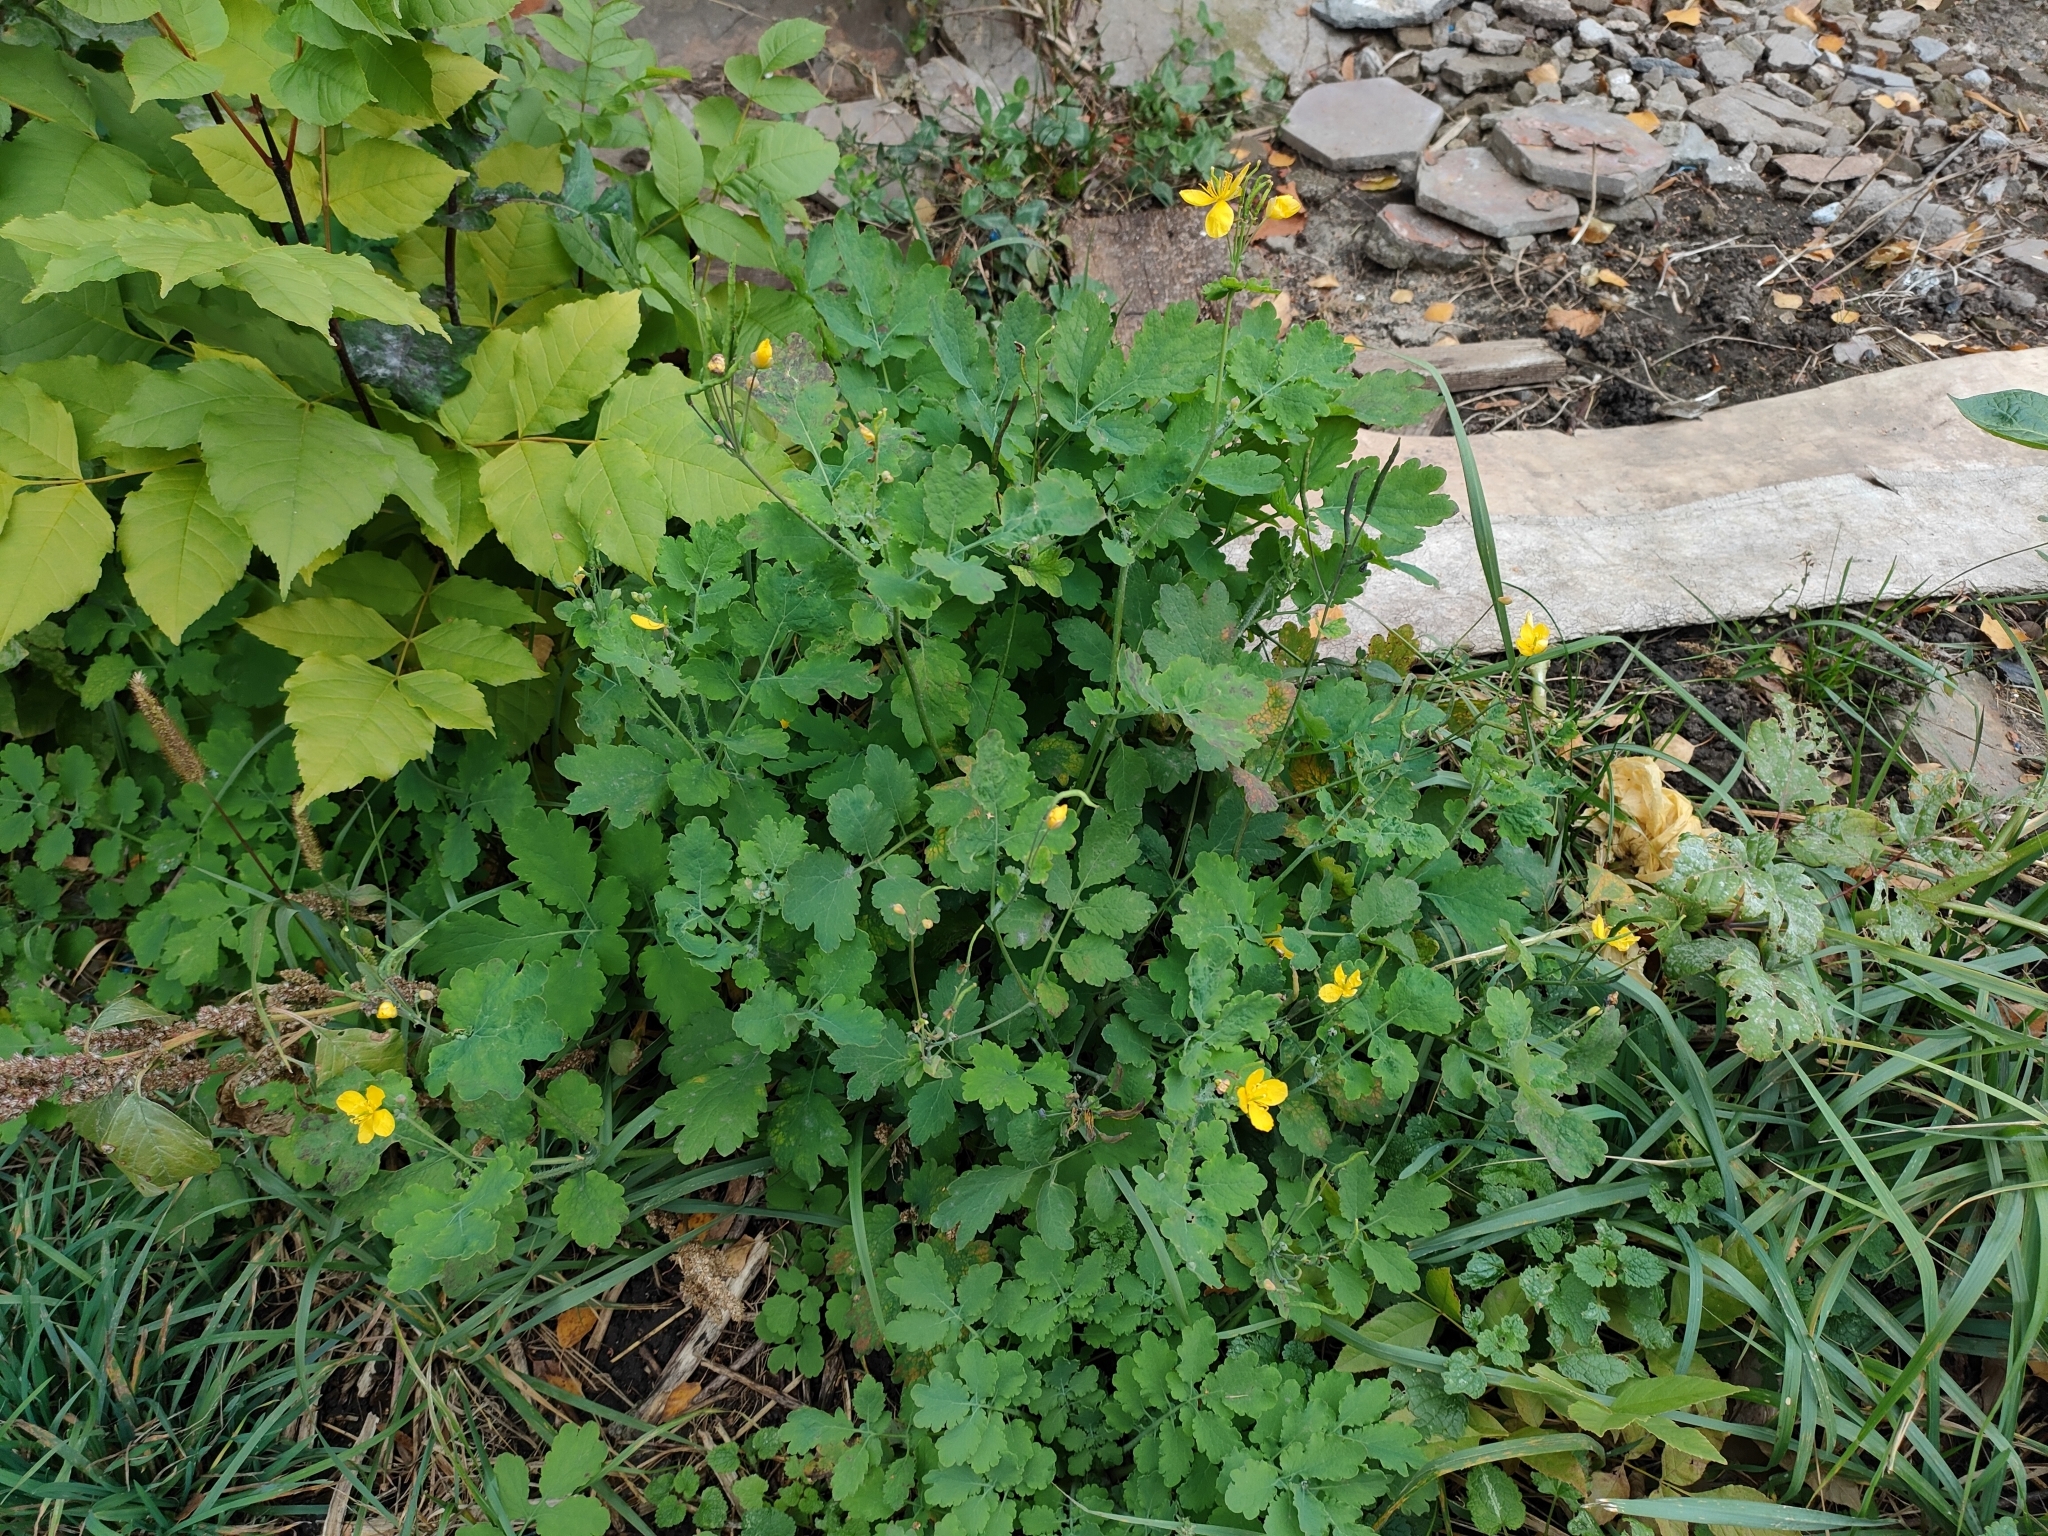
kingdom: Plantae
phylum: Tracheophyta
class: Magnoliopsida
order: Ranunculales
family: Papaveraceae
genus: Chelidonium
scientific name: Chelidonium majus
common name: Greater celandine
